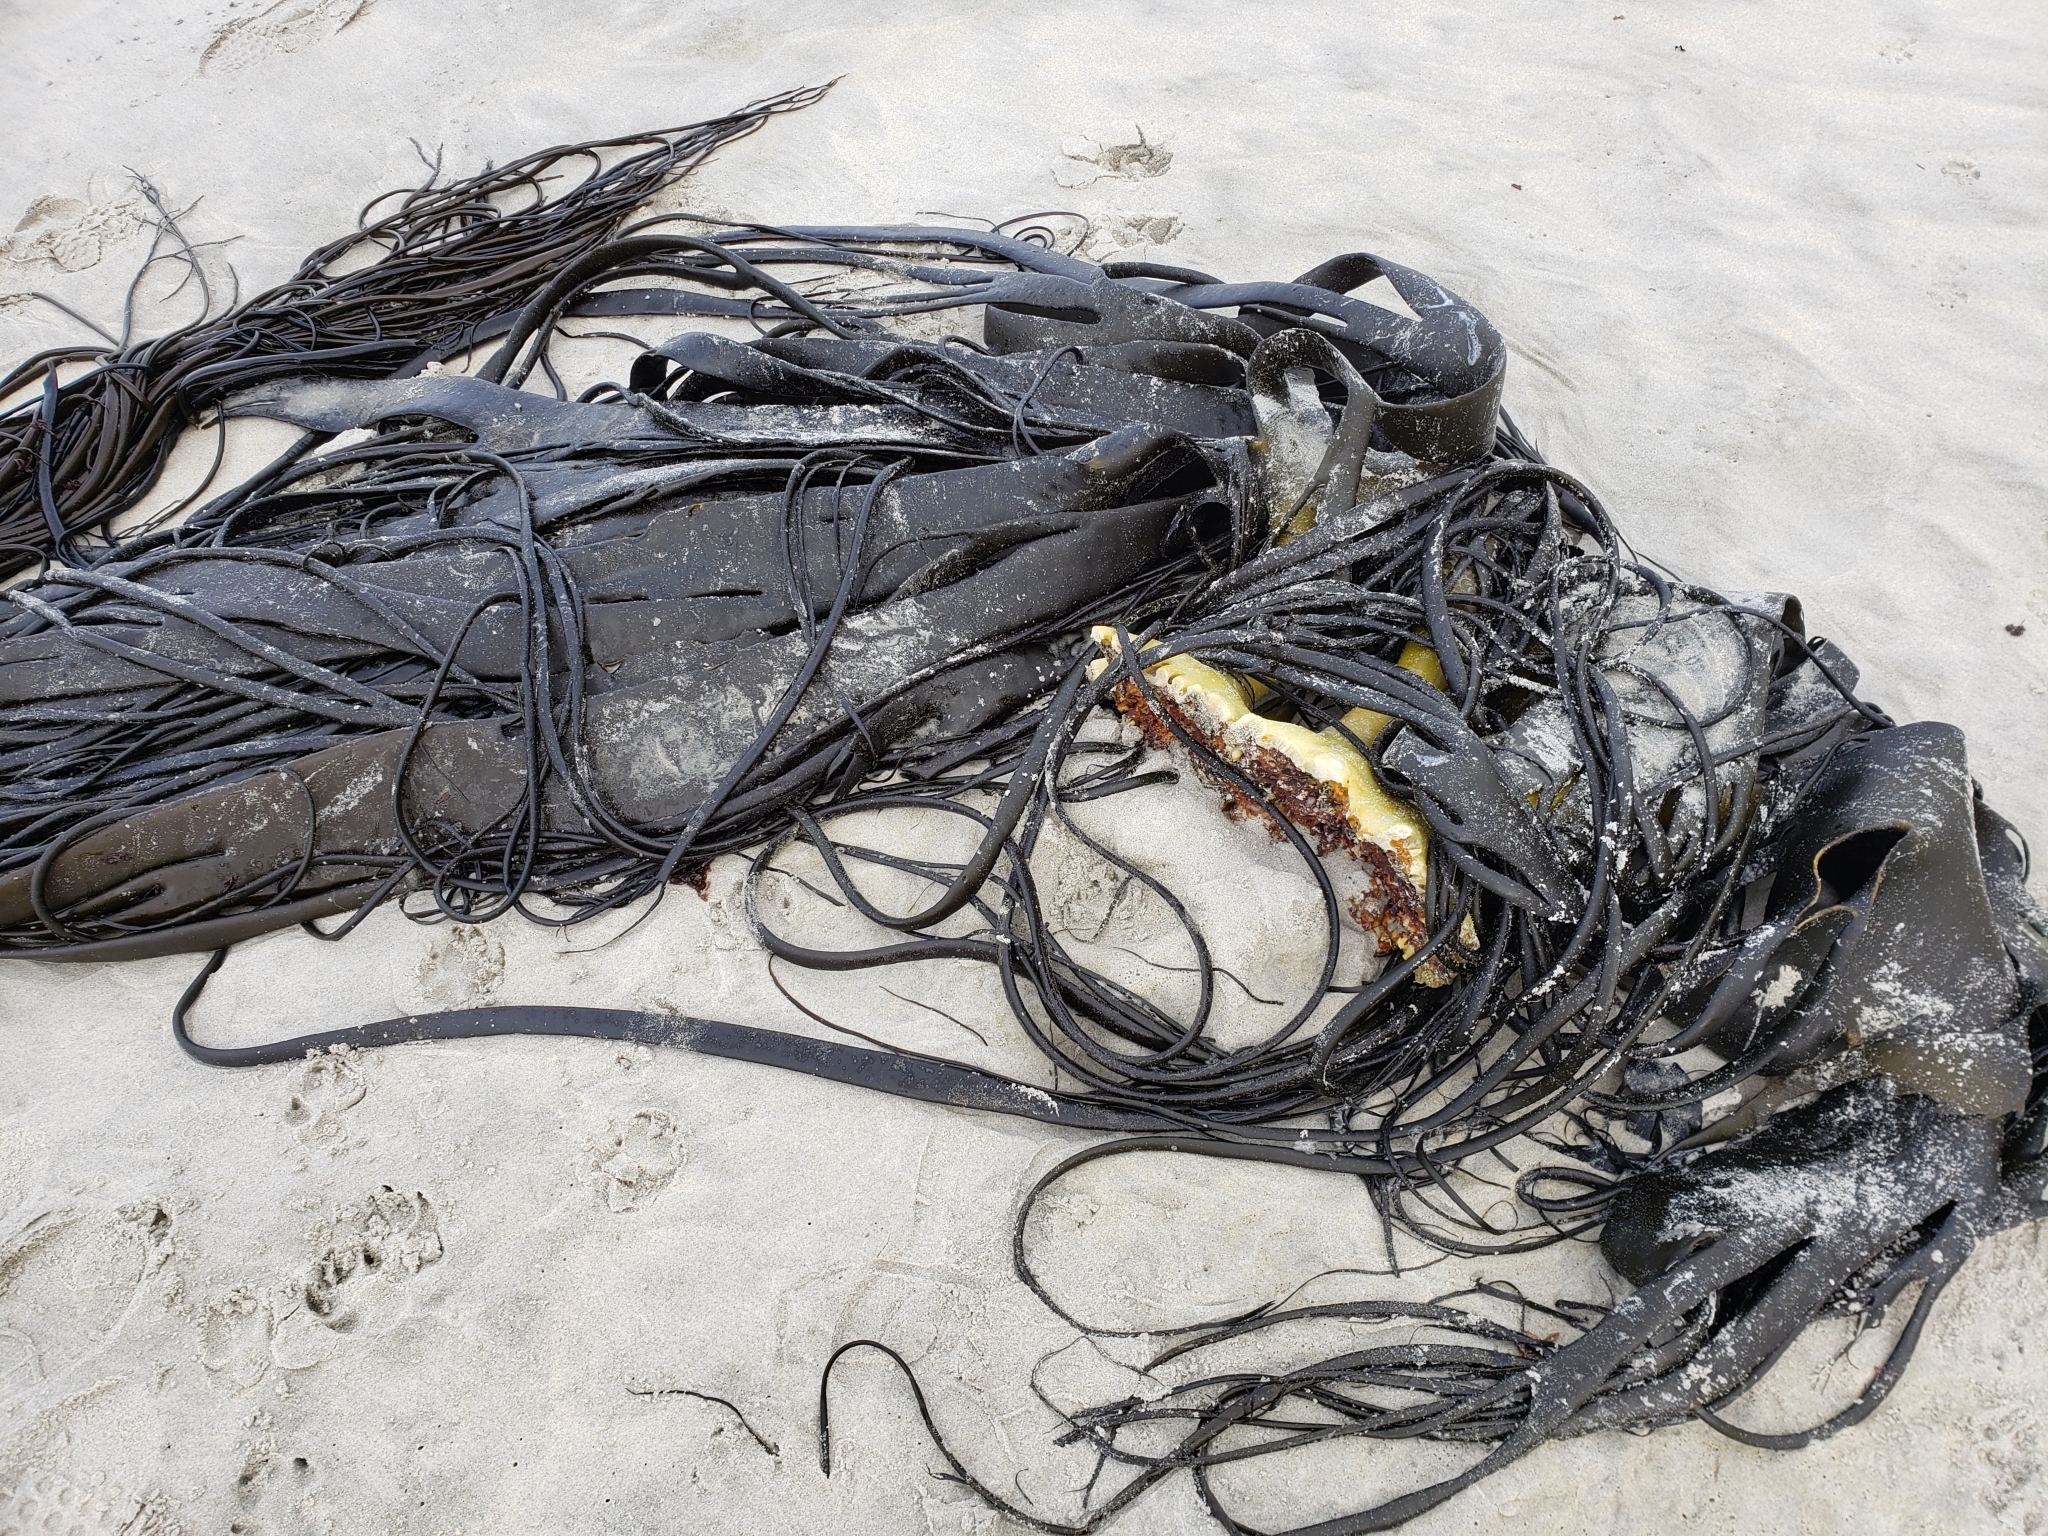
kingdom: Chromista
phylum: Ochrophyta
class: Phaeophyceae
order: Fucales
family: Durvillaeaceae
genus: Durvillaea
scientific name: Durvillaea antarctica
